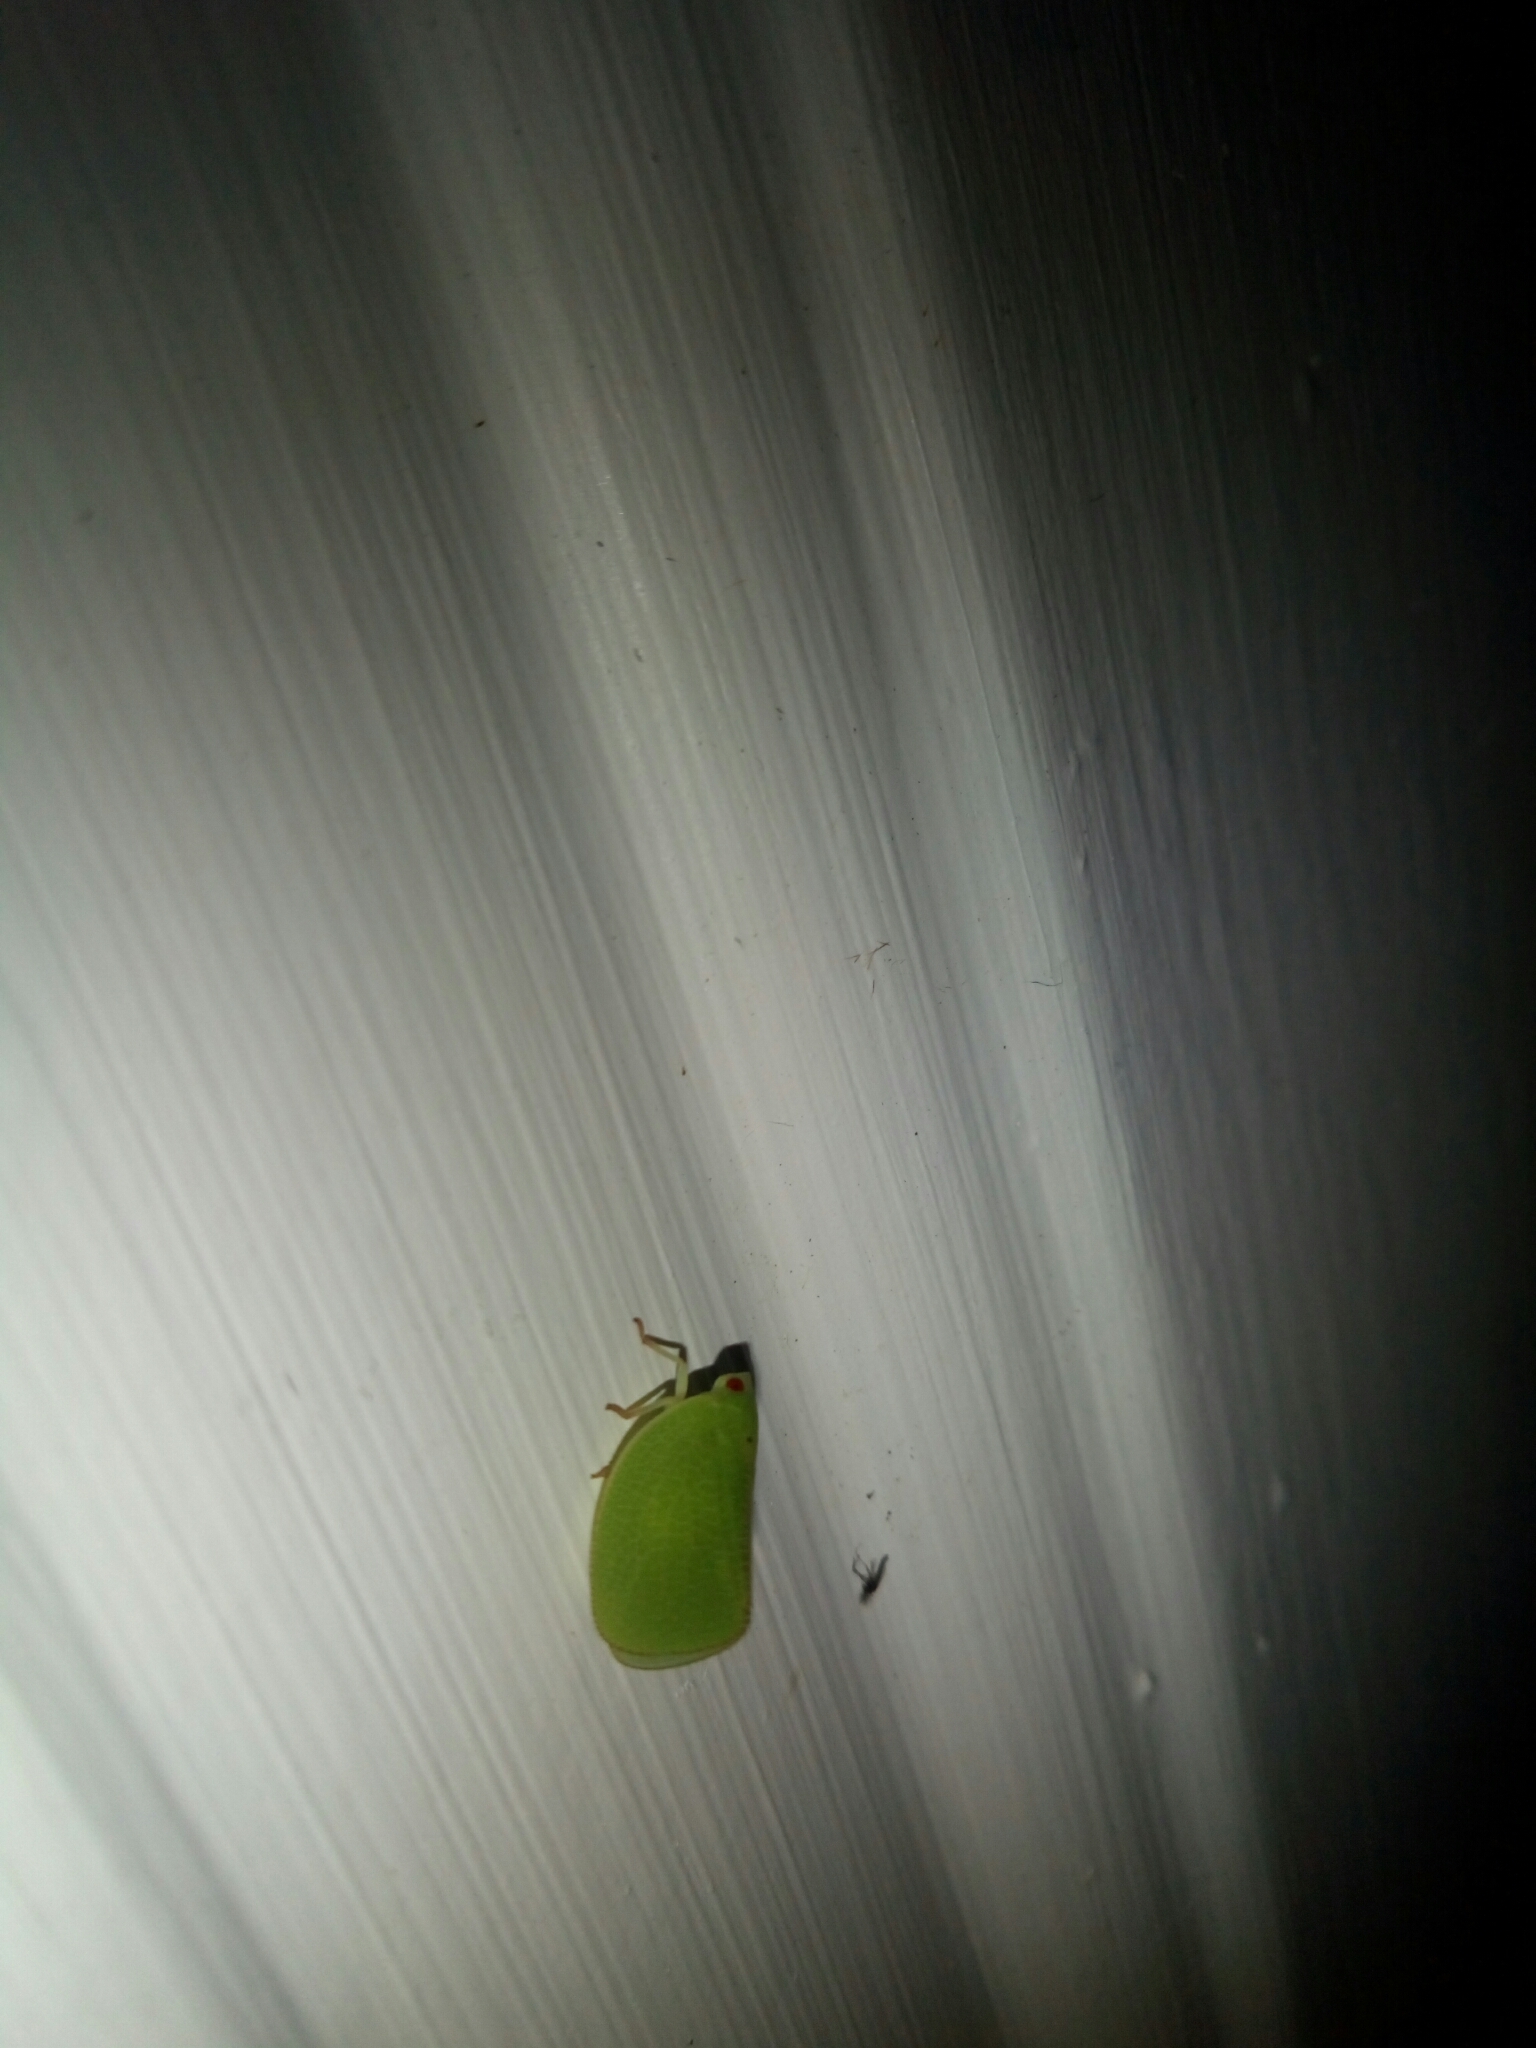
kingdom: Animalia
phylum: Arthropoda
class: Insecta
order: Hemiptera
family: Acanaloniidae
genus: Acanalonia
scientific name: Acanalonia conica
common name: Green cone-headed planthopper
